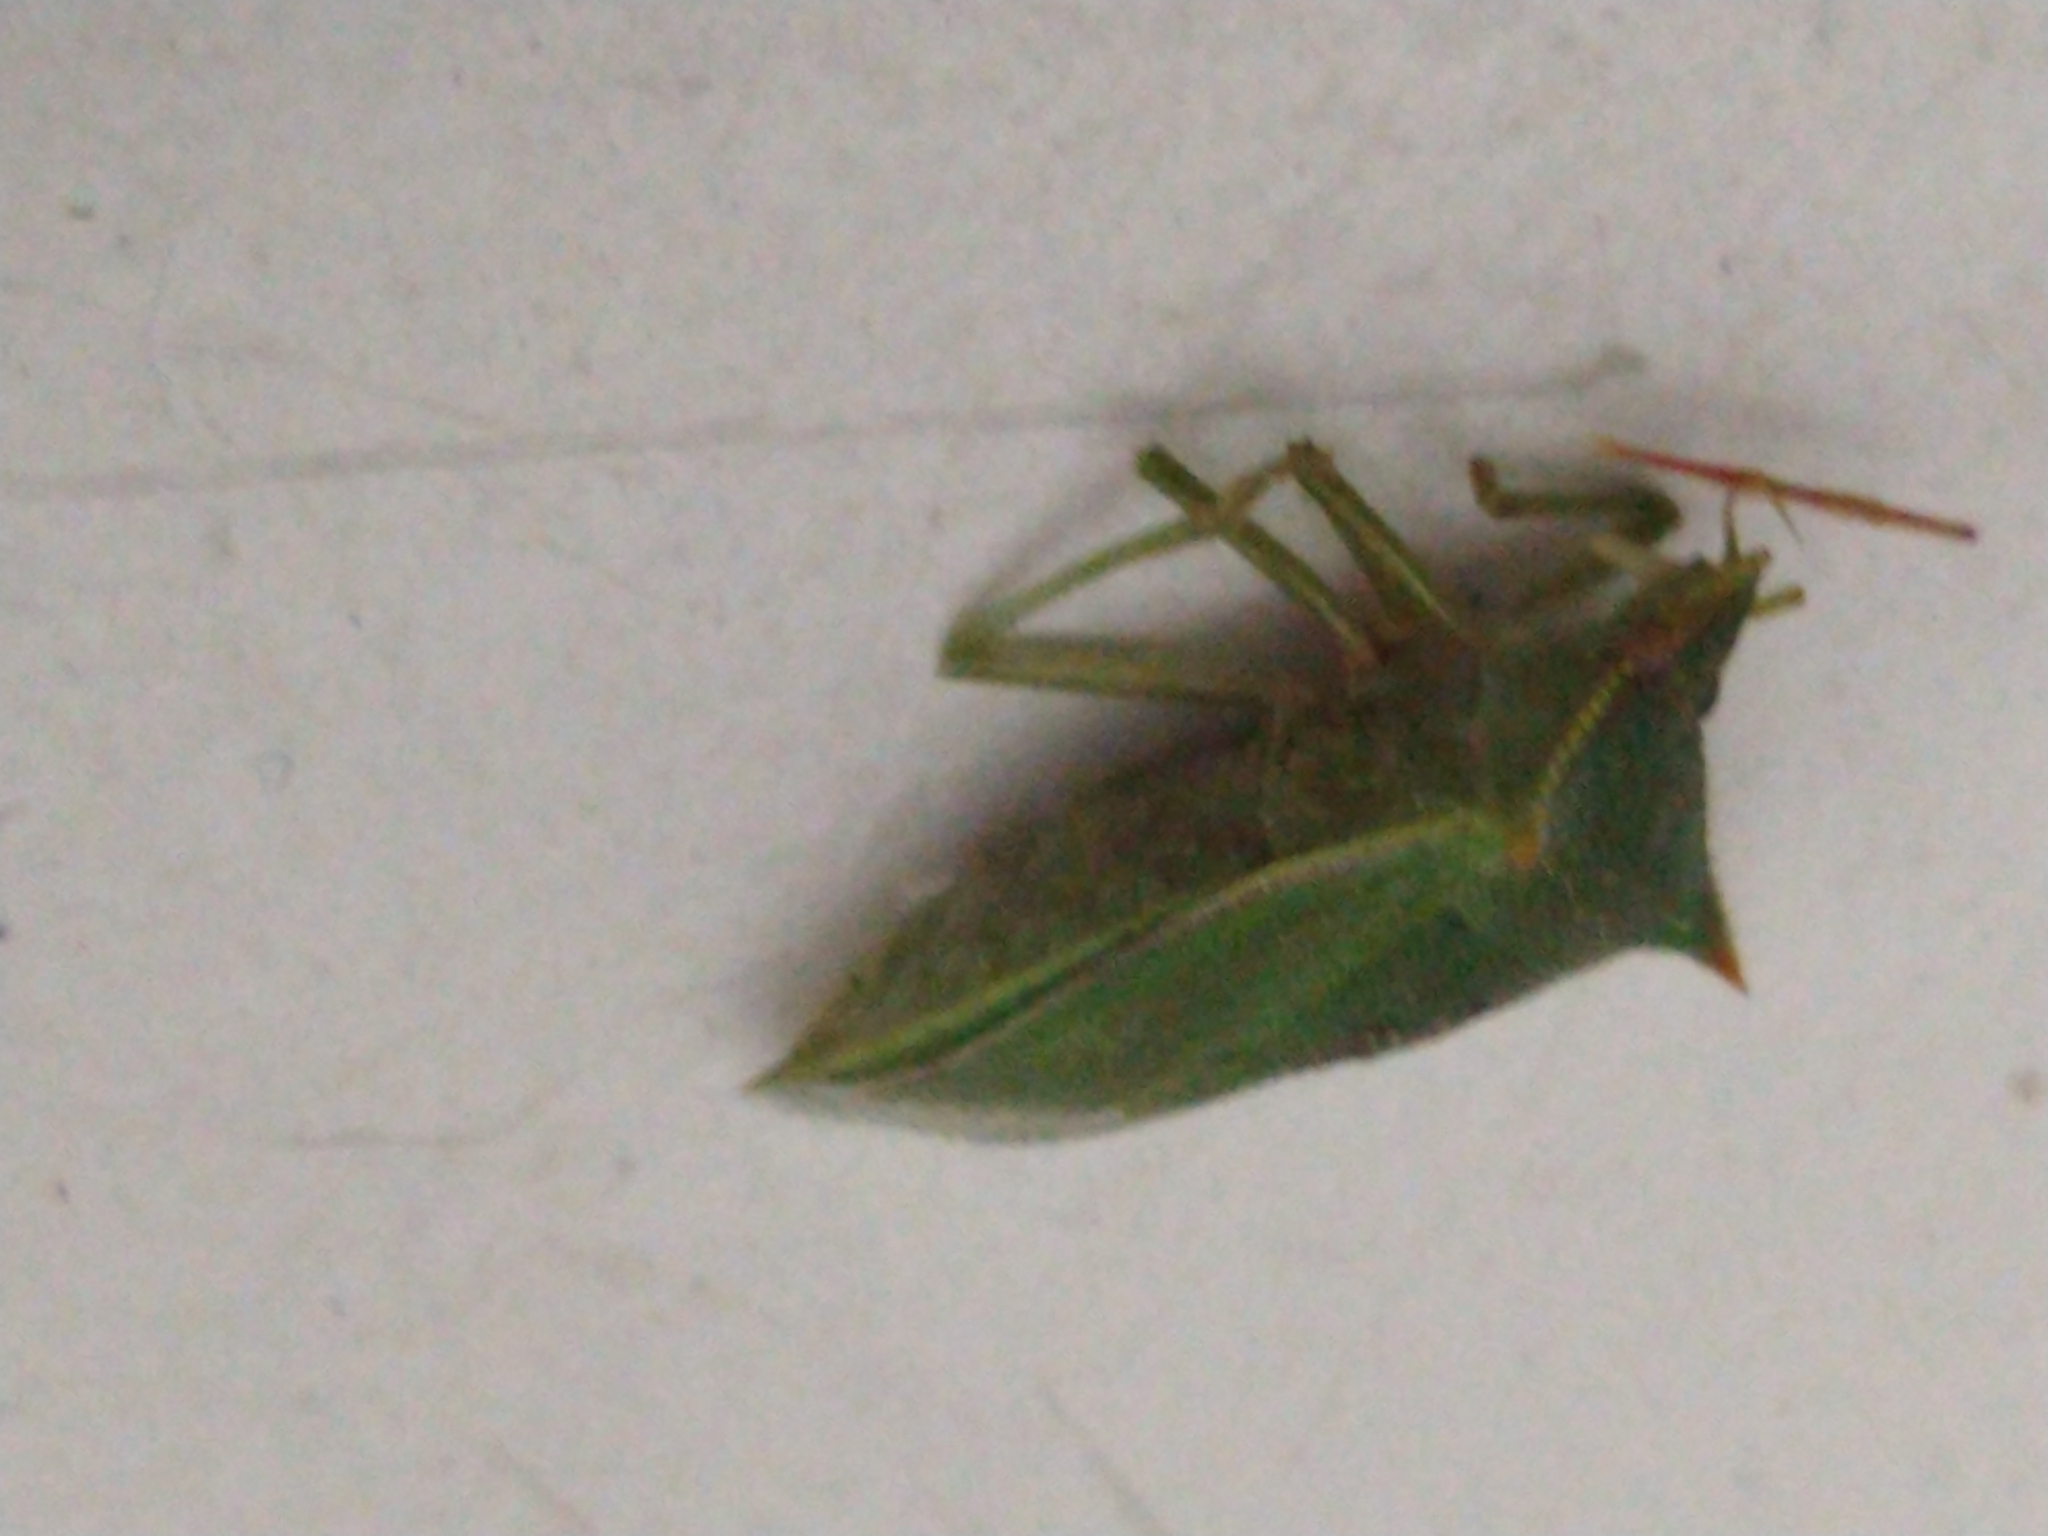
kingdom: Animalia
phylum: Arthropoda
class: Insecta
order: Hemiptera
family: Pentatomidae
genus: Loxa
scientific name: Loxa deducta
